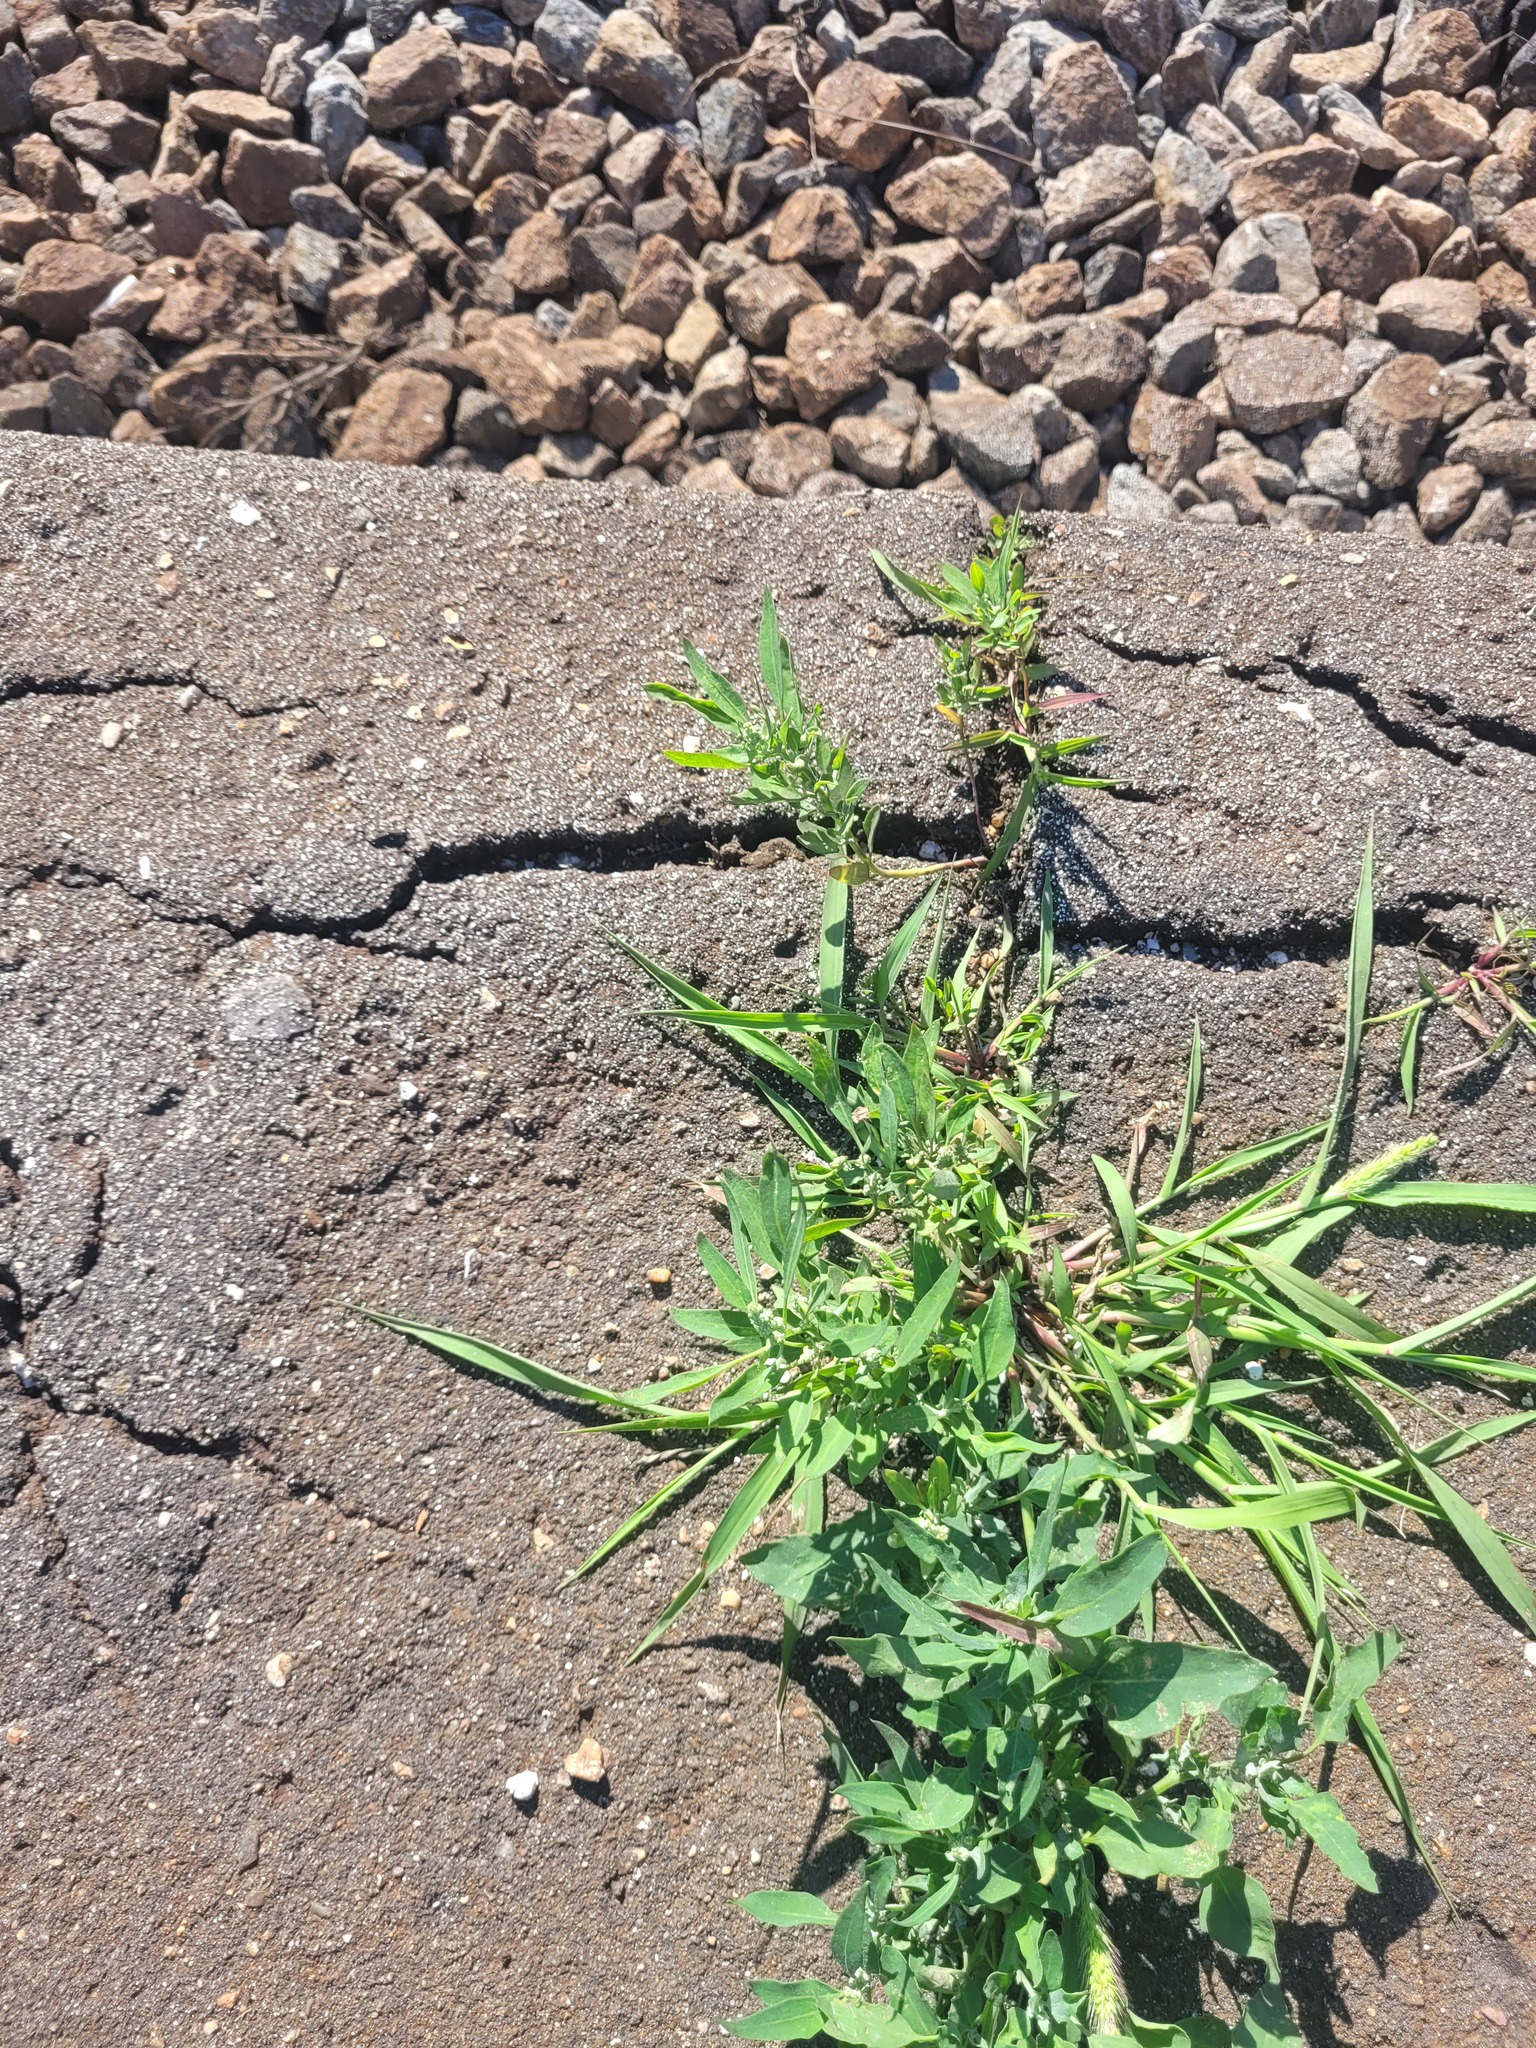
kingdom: Plantae
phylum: Tracheophyta
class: Magnoliopsida
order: Caryophyllales
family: Amaranthaceae
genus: Chenopodium
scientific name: Chenopodium album
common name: Fat-hen
